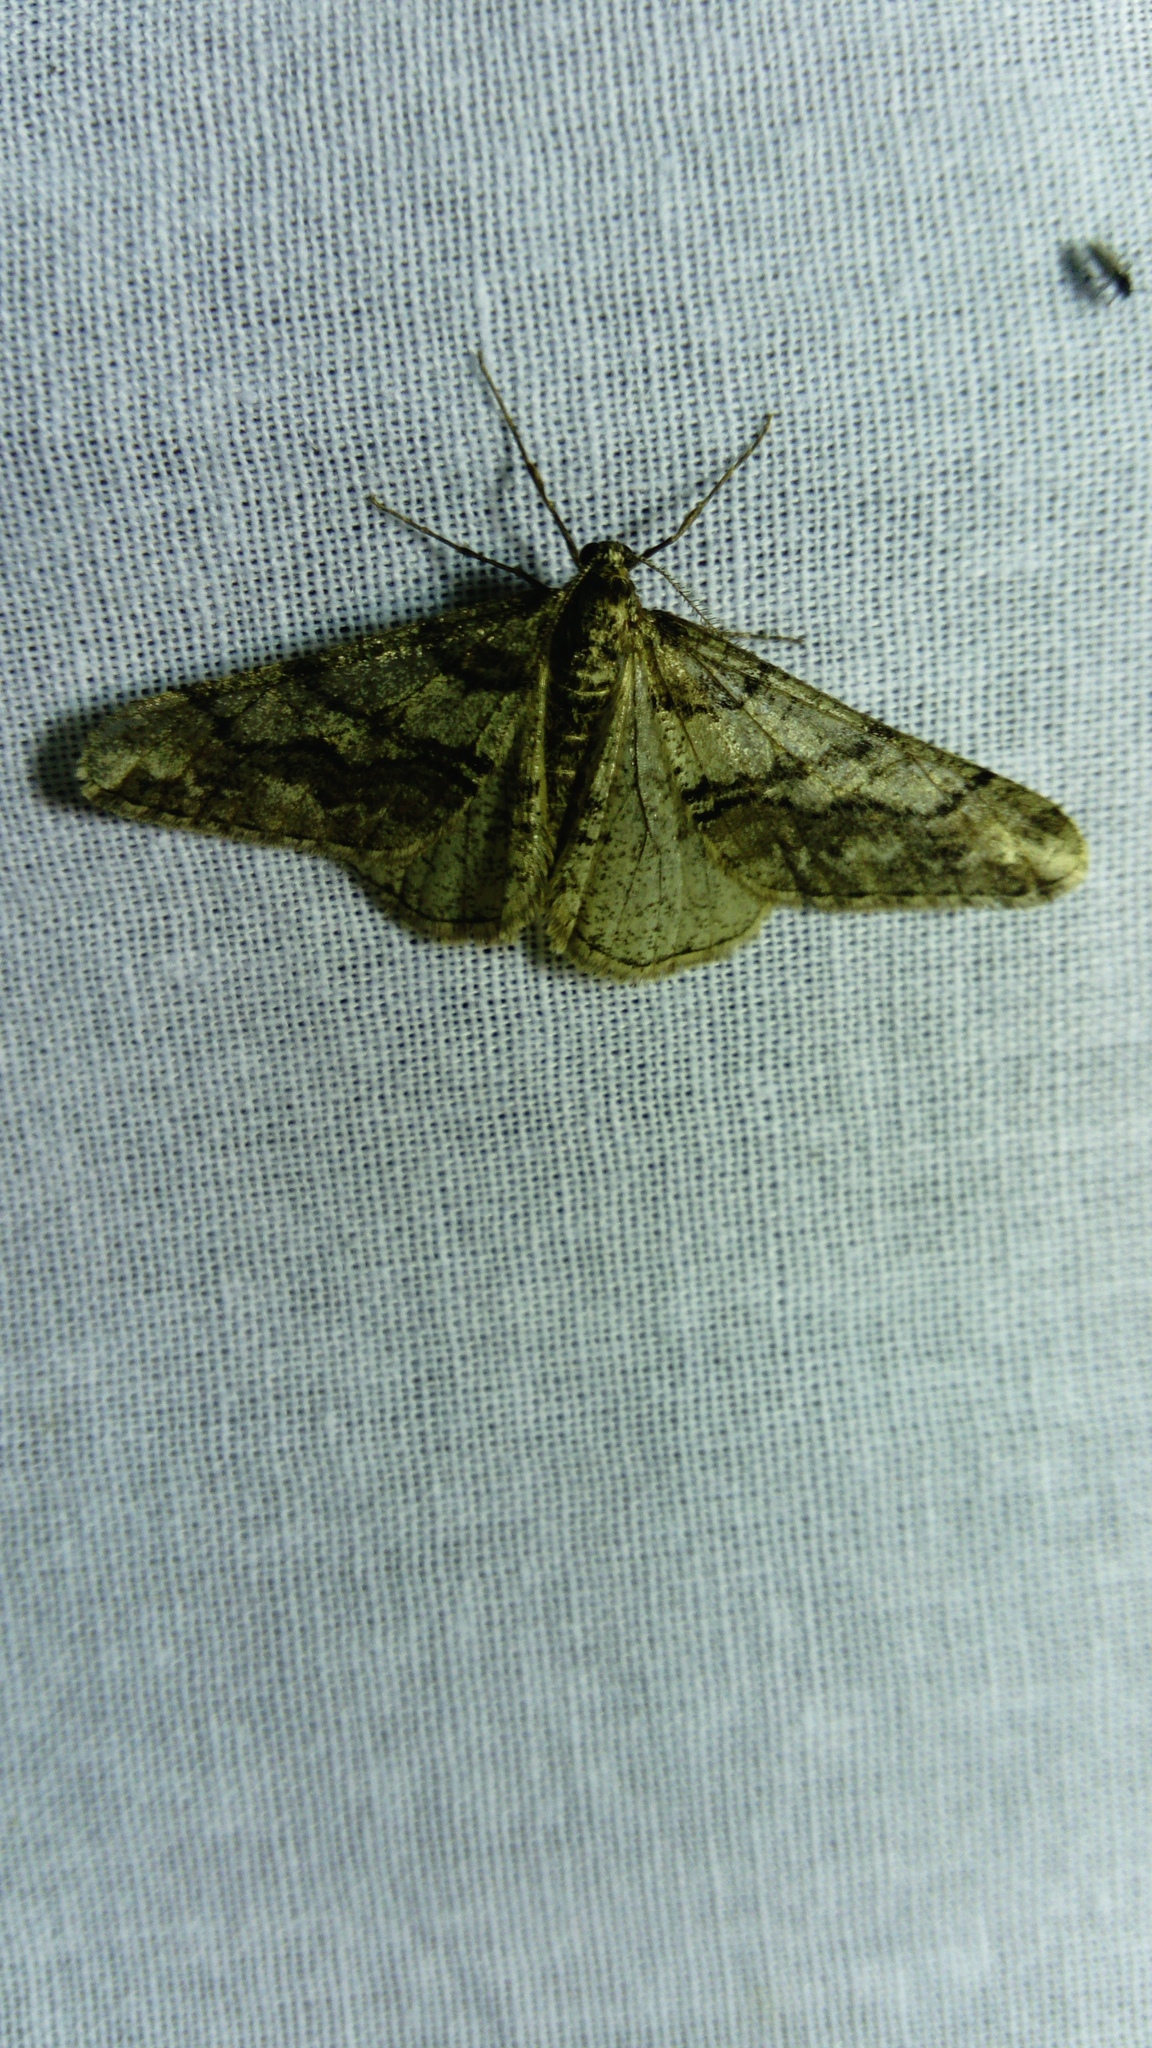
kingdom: Animalia
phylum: Arthropoda
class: Insecta
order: Lepidoptera
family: Geometridae
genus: Agriopis
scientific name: Agriopis leucophaearia
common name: Spring usher
